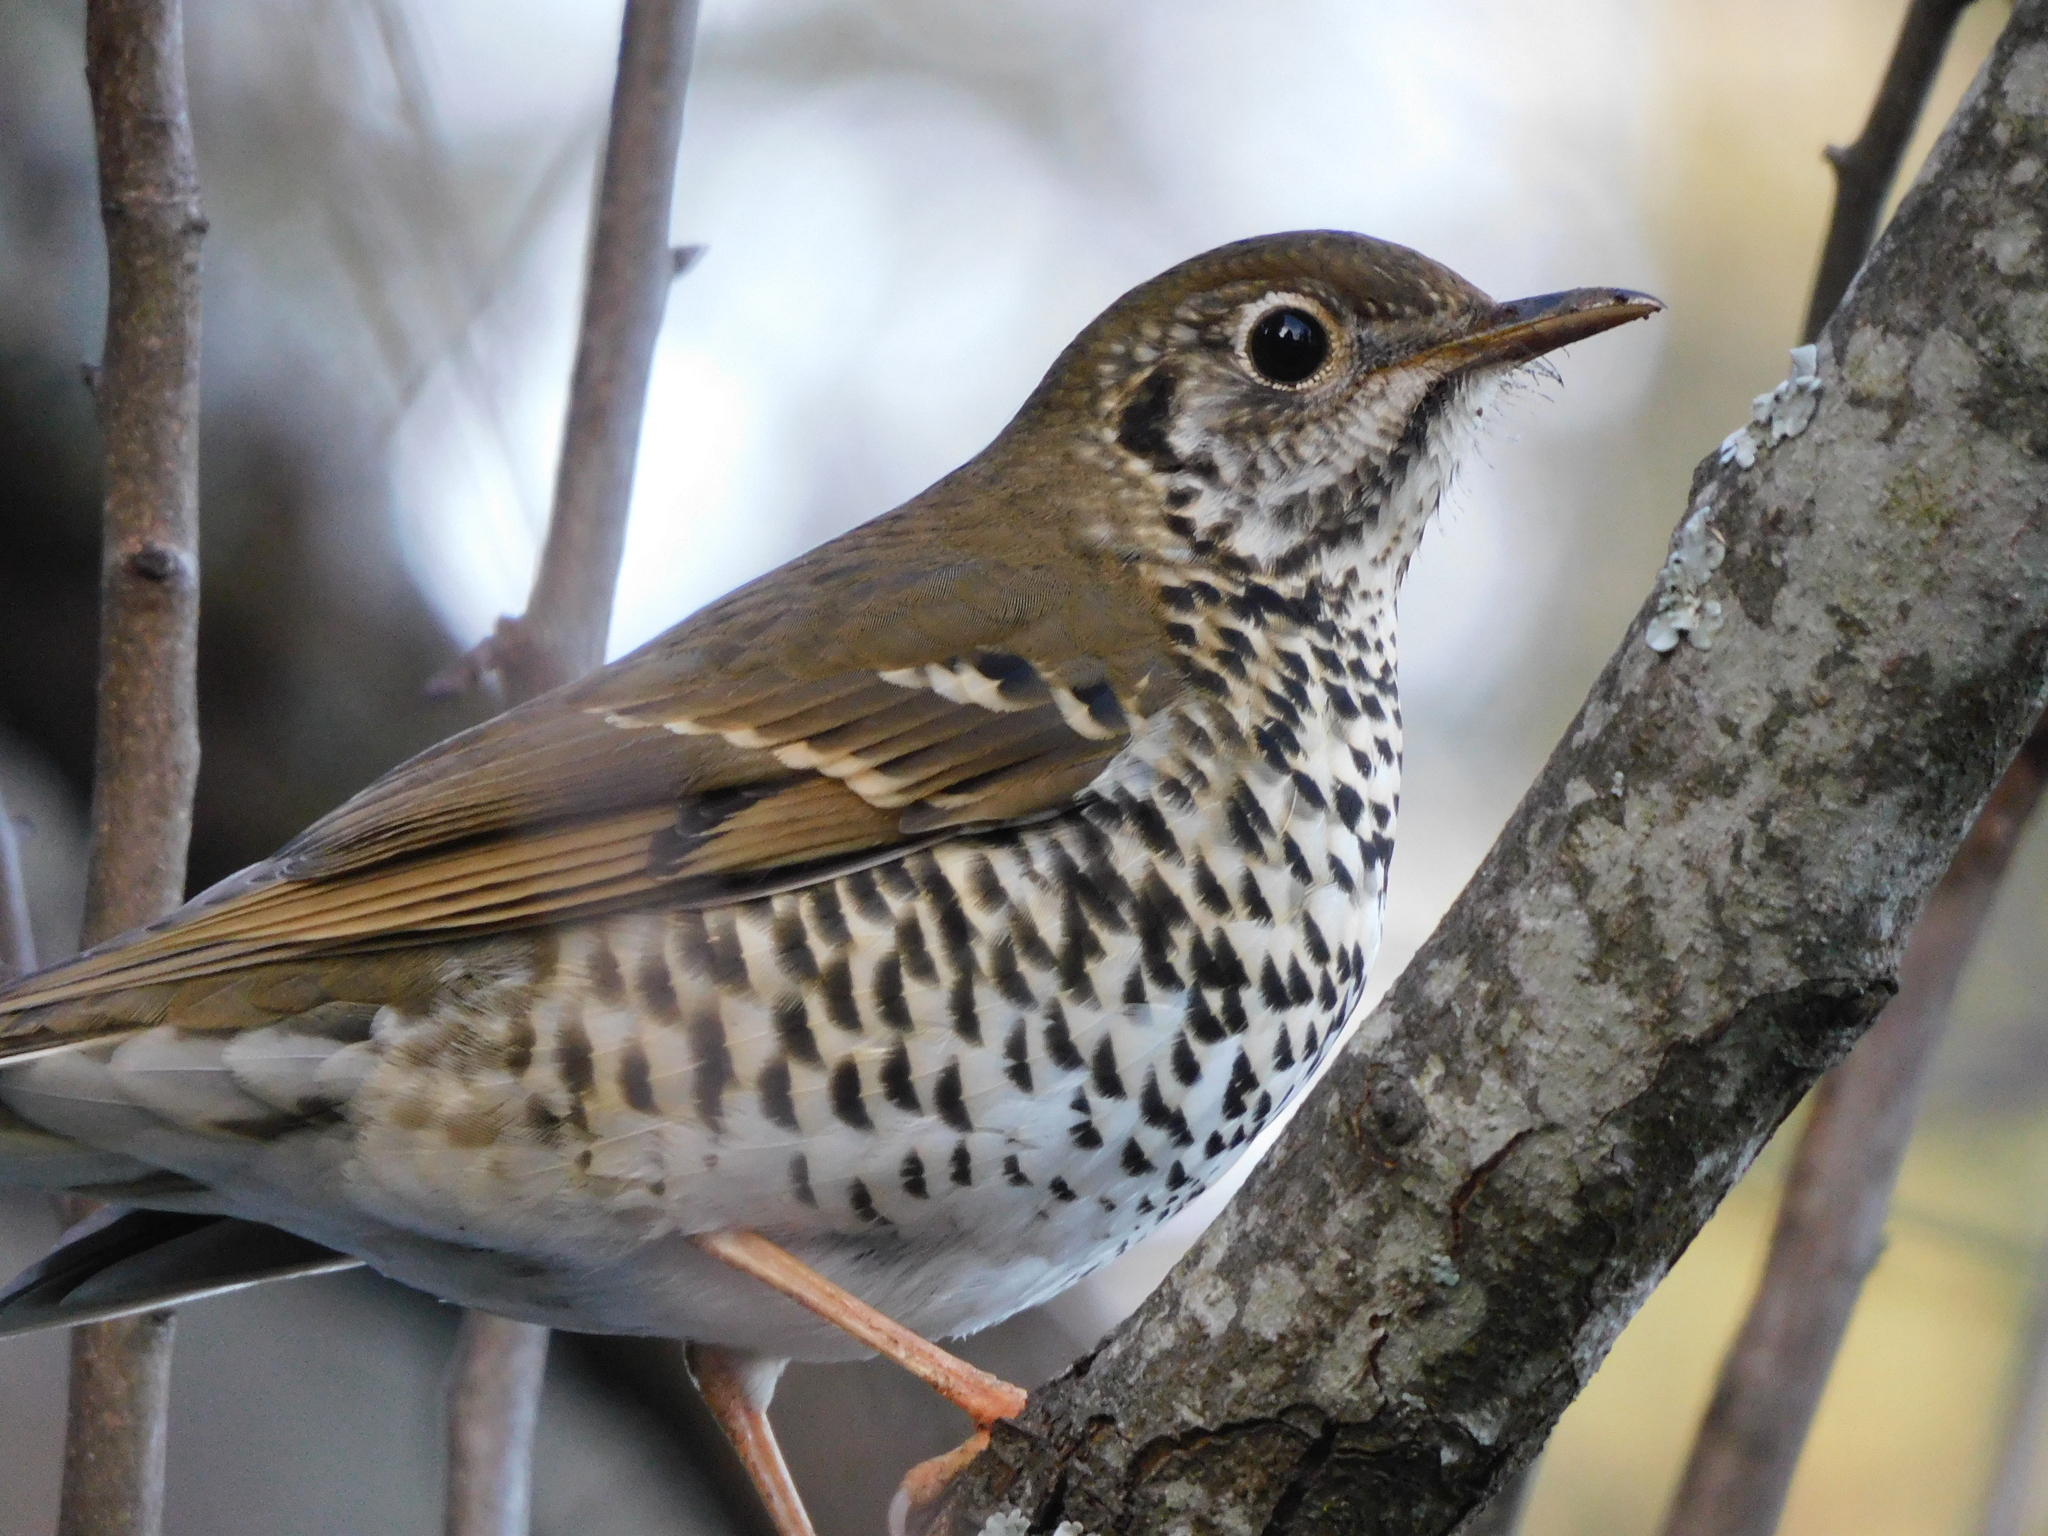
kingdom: Animalia
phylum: Chordata
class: Aves
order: Passeriformes
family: Turdidae
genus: Zoothera
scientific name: Zoothera dixoni
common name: Long-tailed thrush
